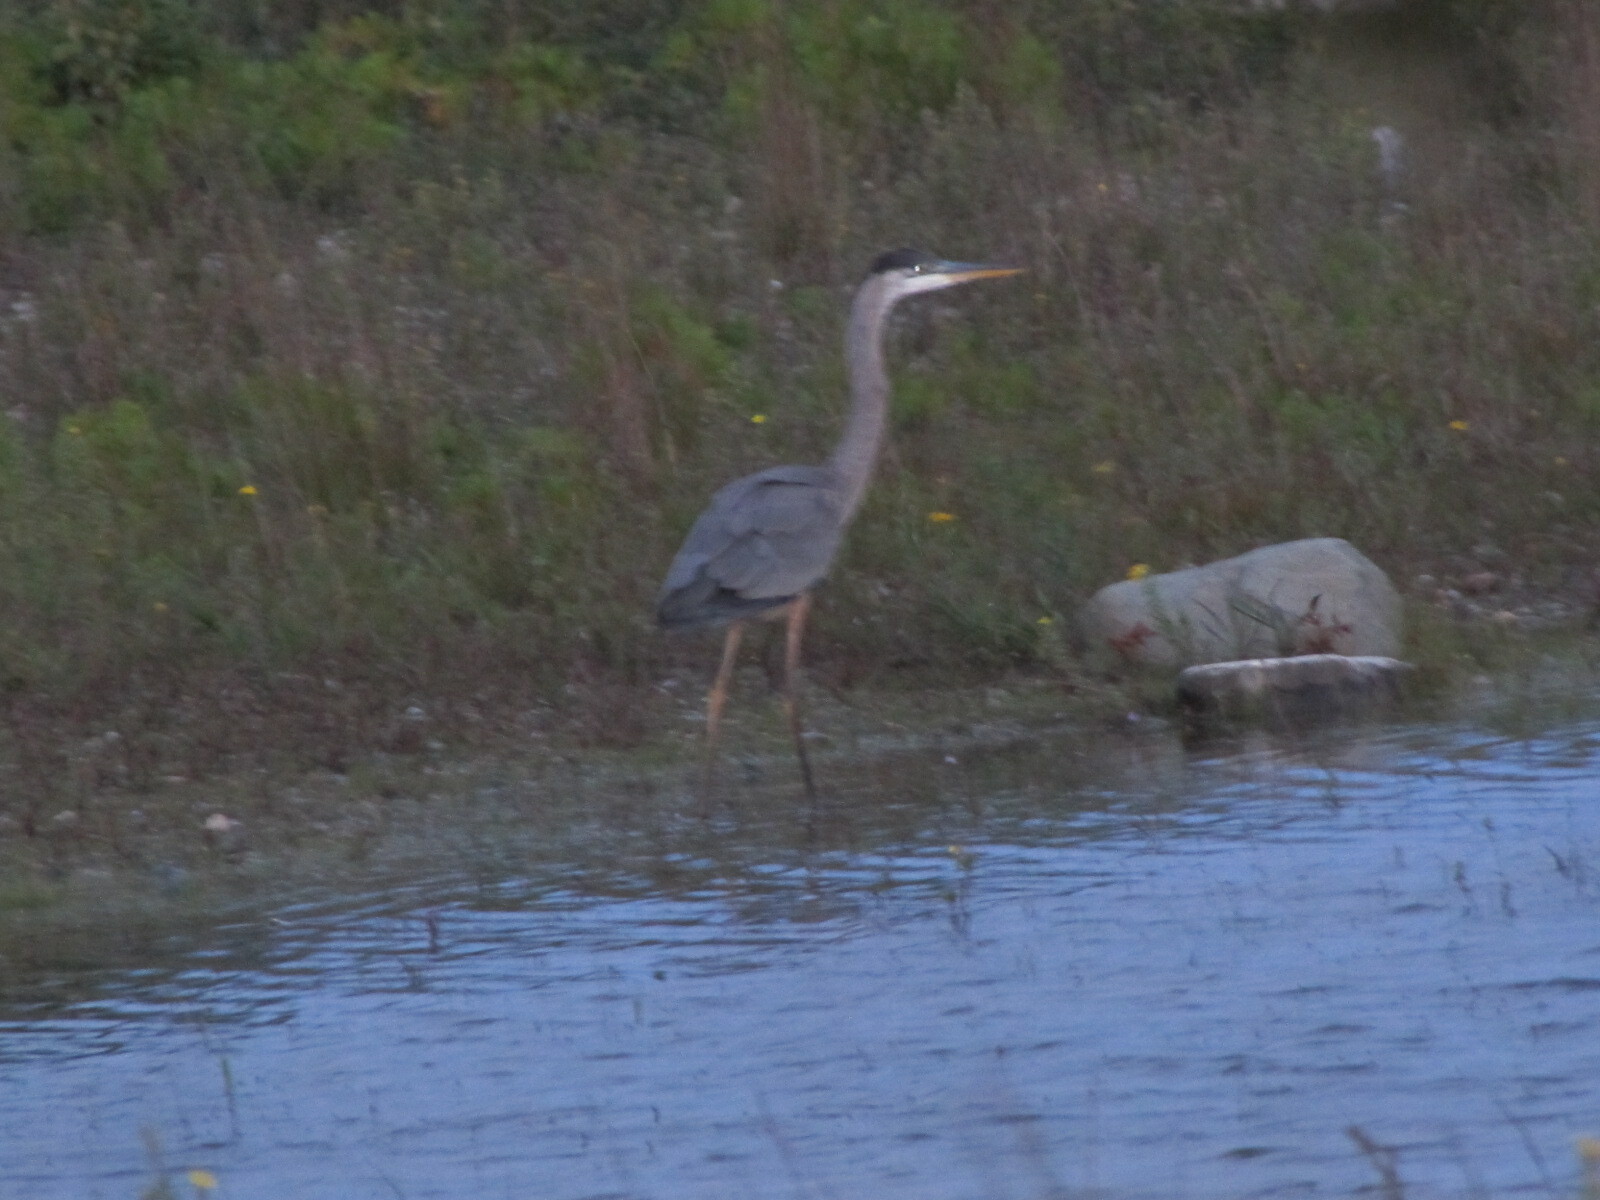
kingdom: Animalia
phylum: Chordata
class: Aves
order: Pelecaniformes
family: Ardeidae
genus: Ardea
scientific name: Ardea herodias
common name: Great blue heron
